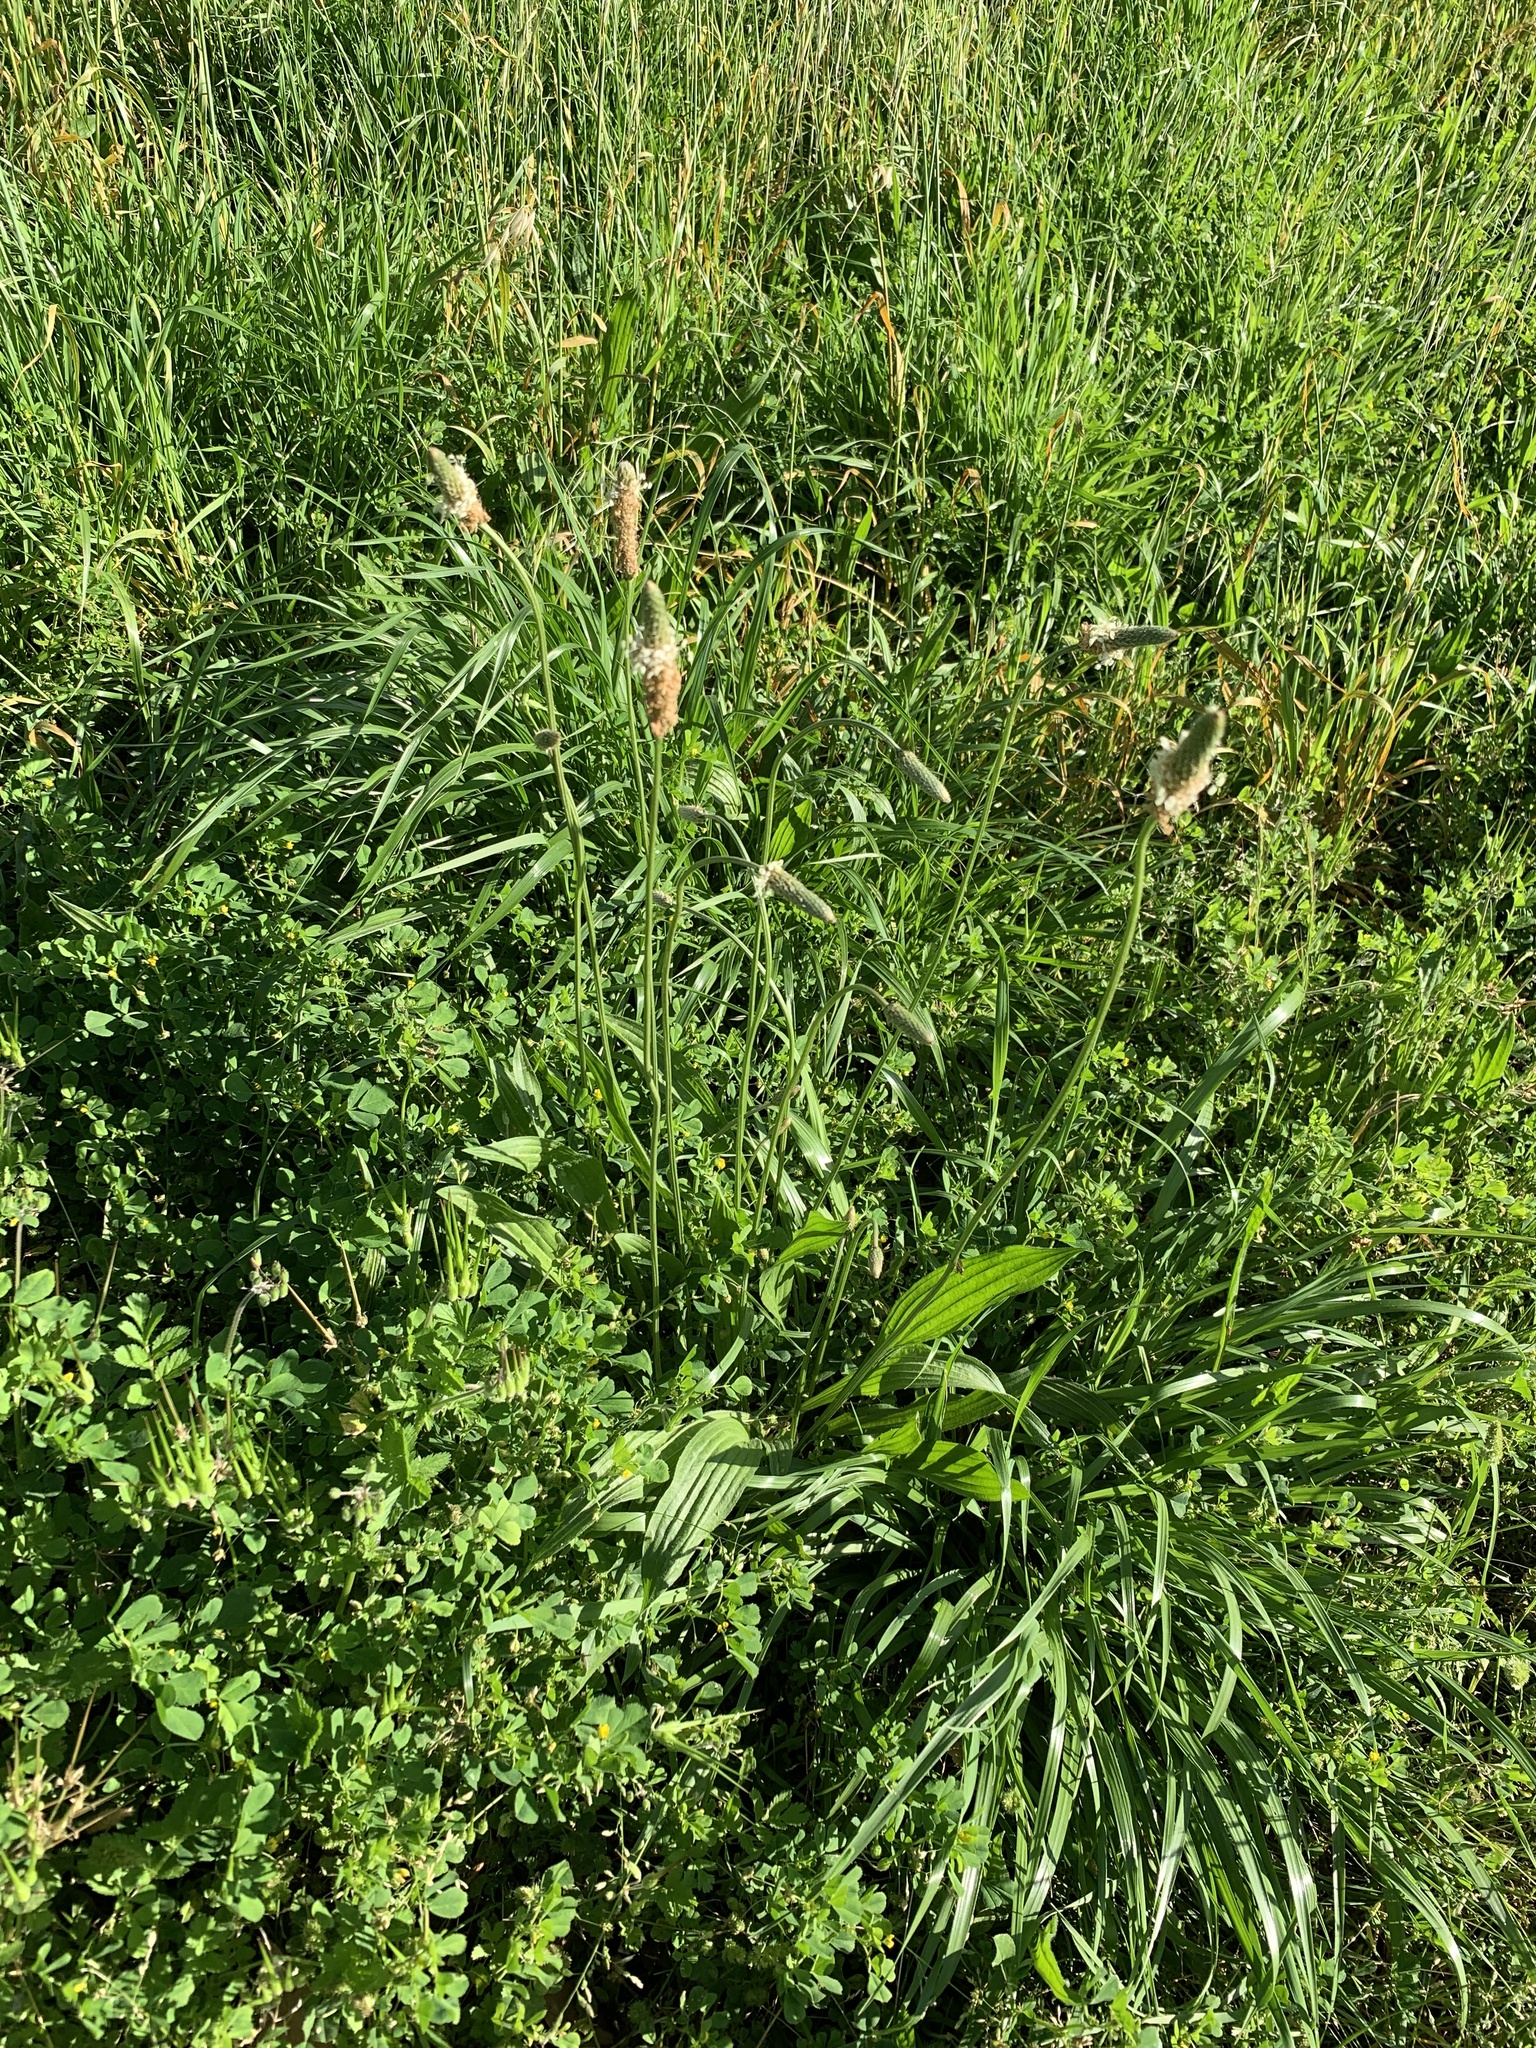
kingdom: Plantae
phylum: Tracheophyta
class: Magnoliopsida
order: Lamiales
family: Plantaginaceae
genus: Plantago
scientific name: Plantago lanceolata
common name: Ribwort plantain
